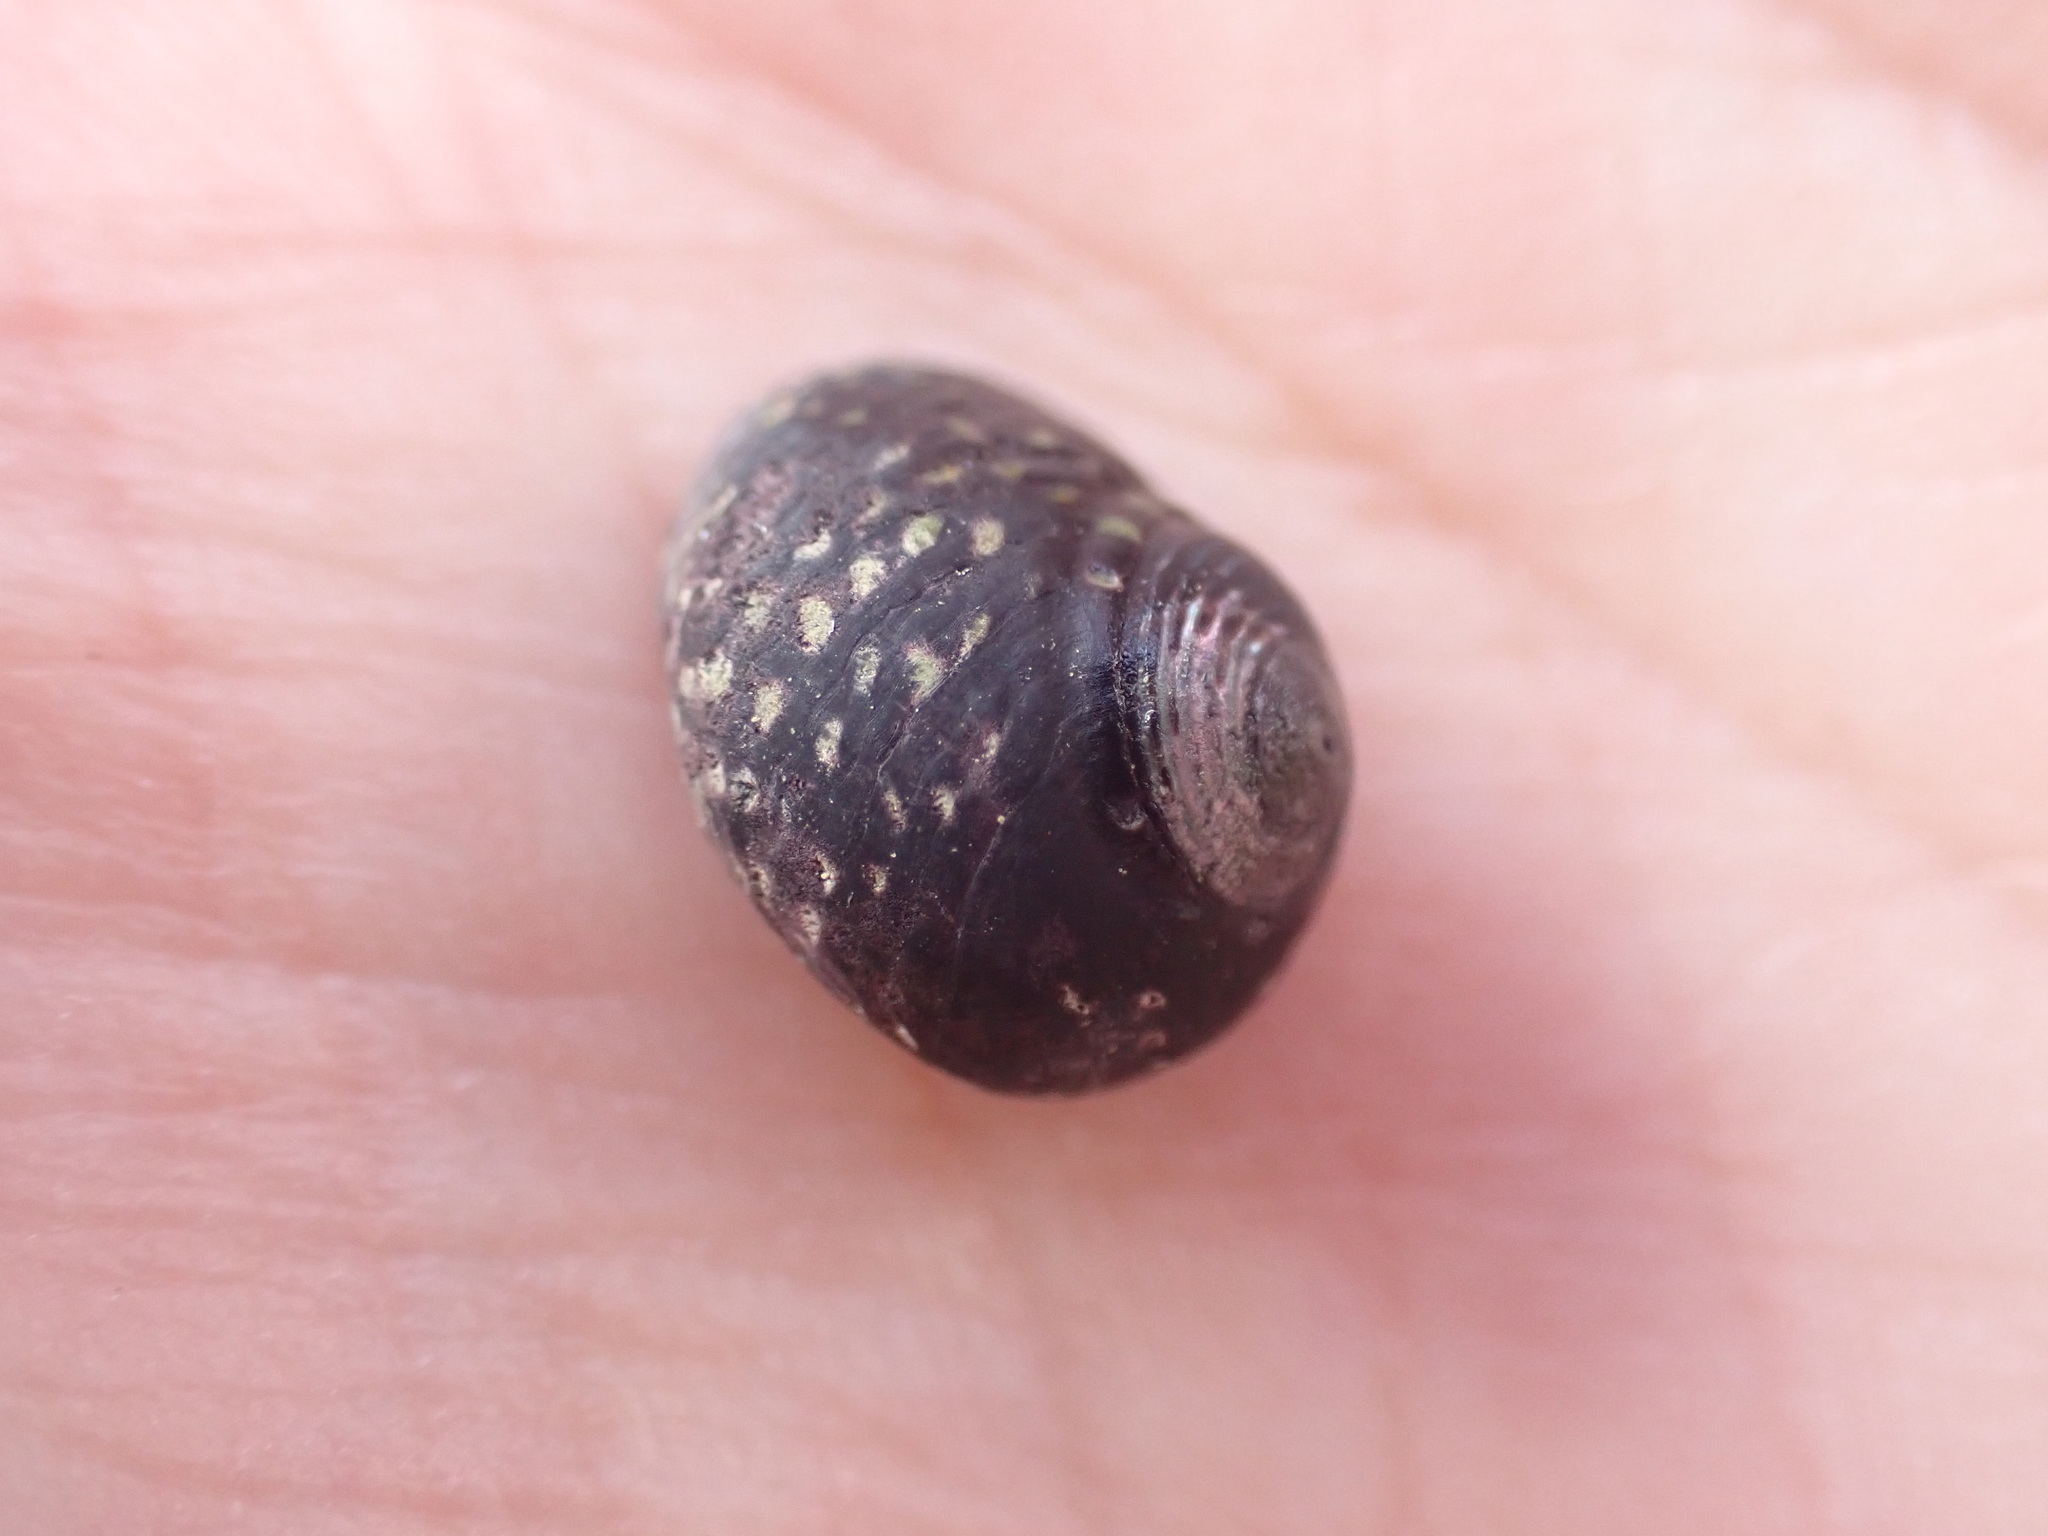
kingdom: Animalia
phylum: Mollusca
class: Gastropoda
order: Trochida
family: Trochidae
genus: Diloma
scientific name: Diloma aridum
